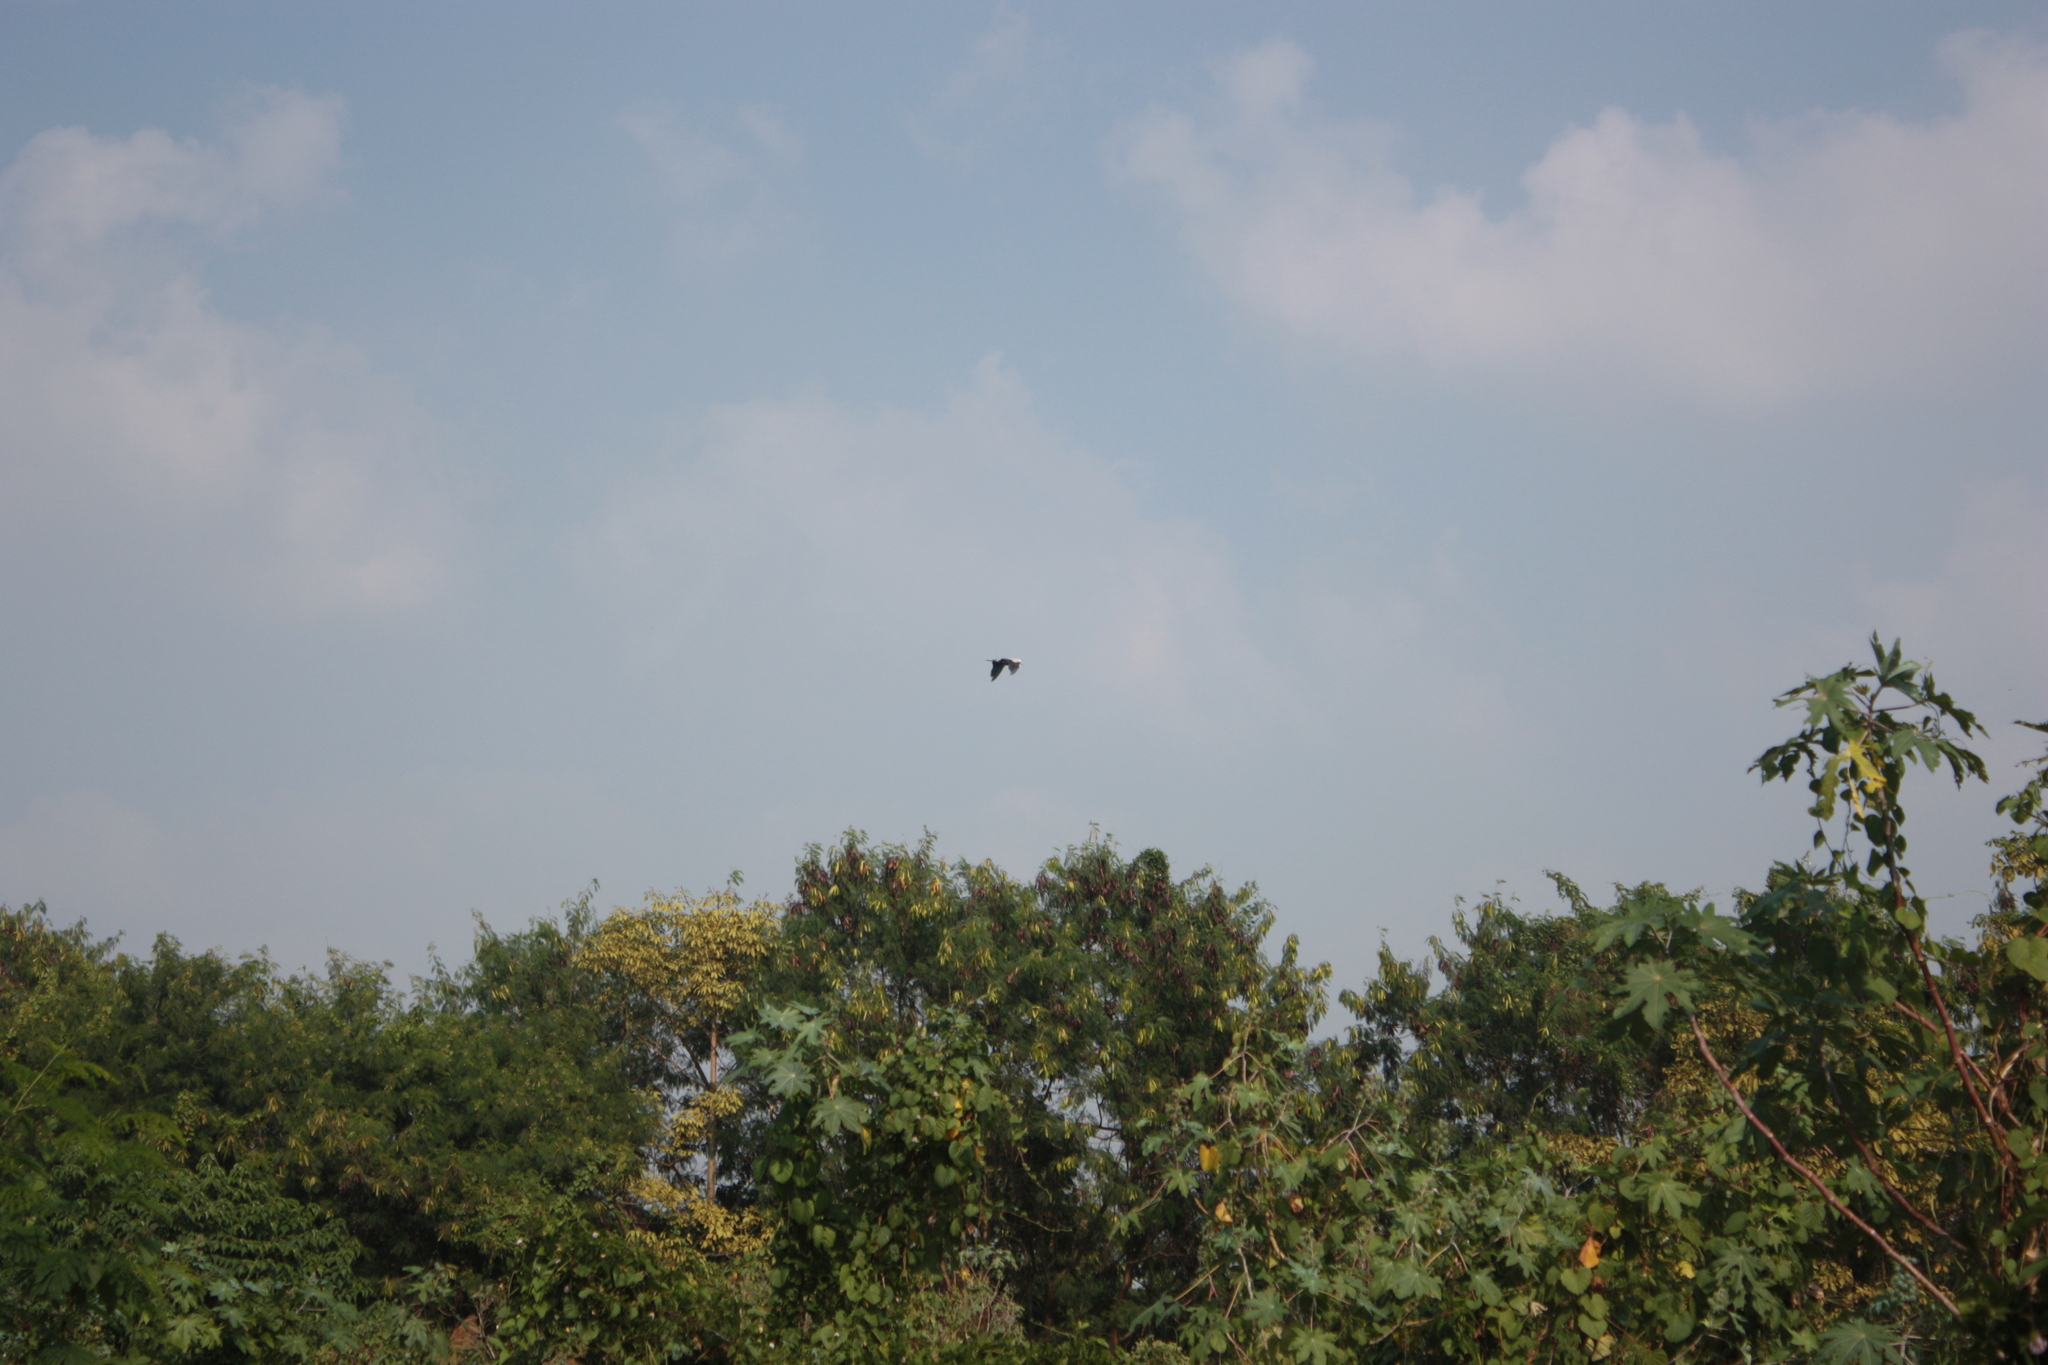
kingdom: Animalia
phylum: Chordata
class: Aves
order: Pelecaniformes
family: Ardeidae
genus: Ardea
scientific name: Ardea cinerea
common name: Grey heron
